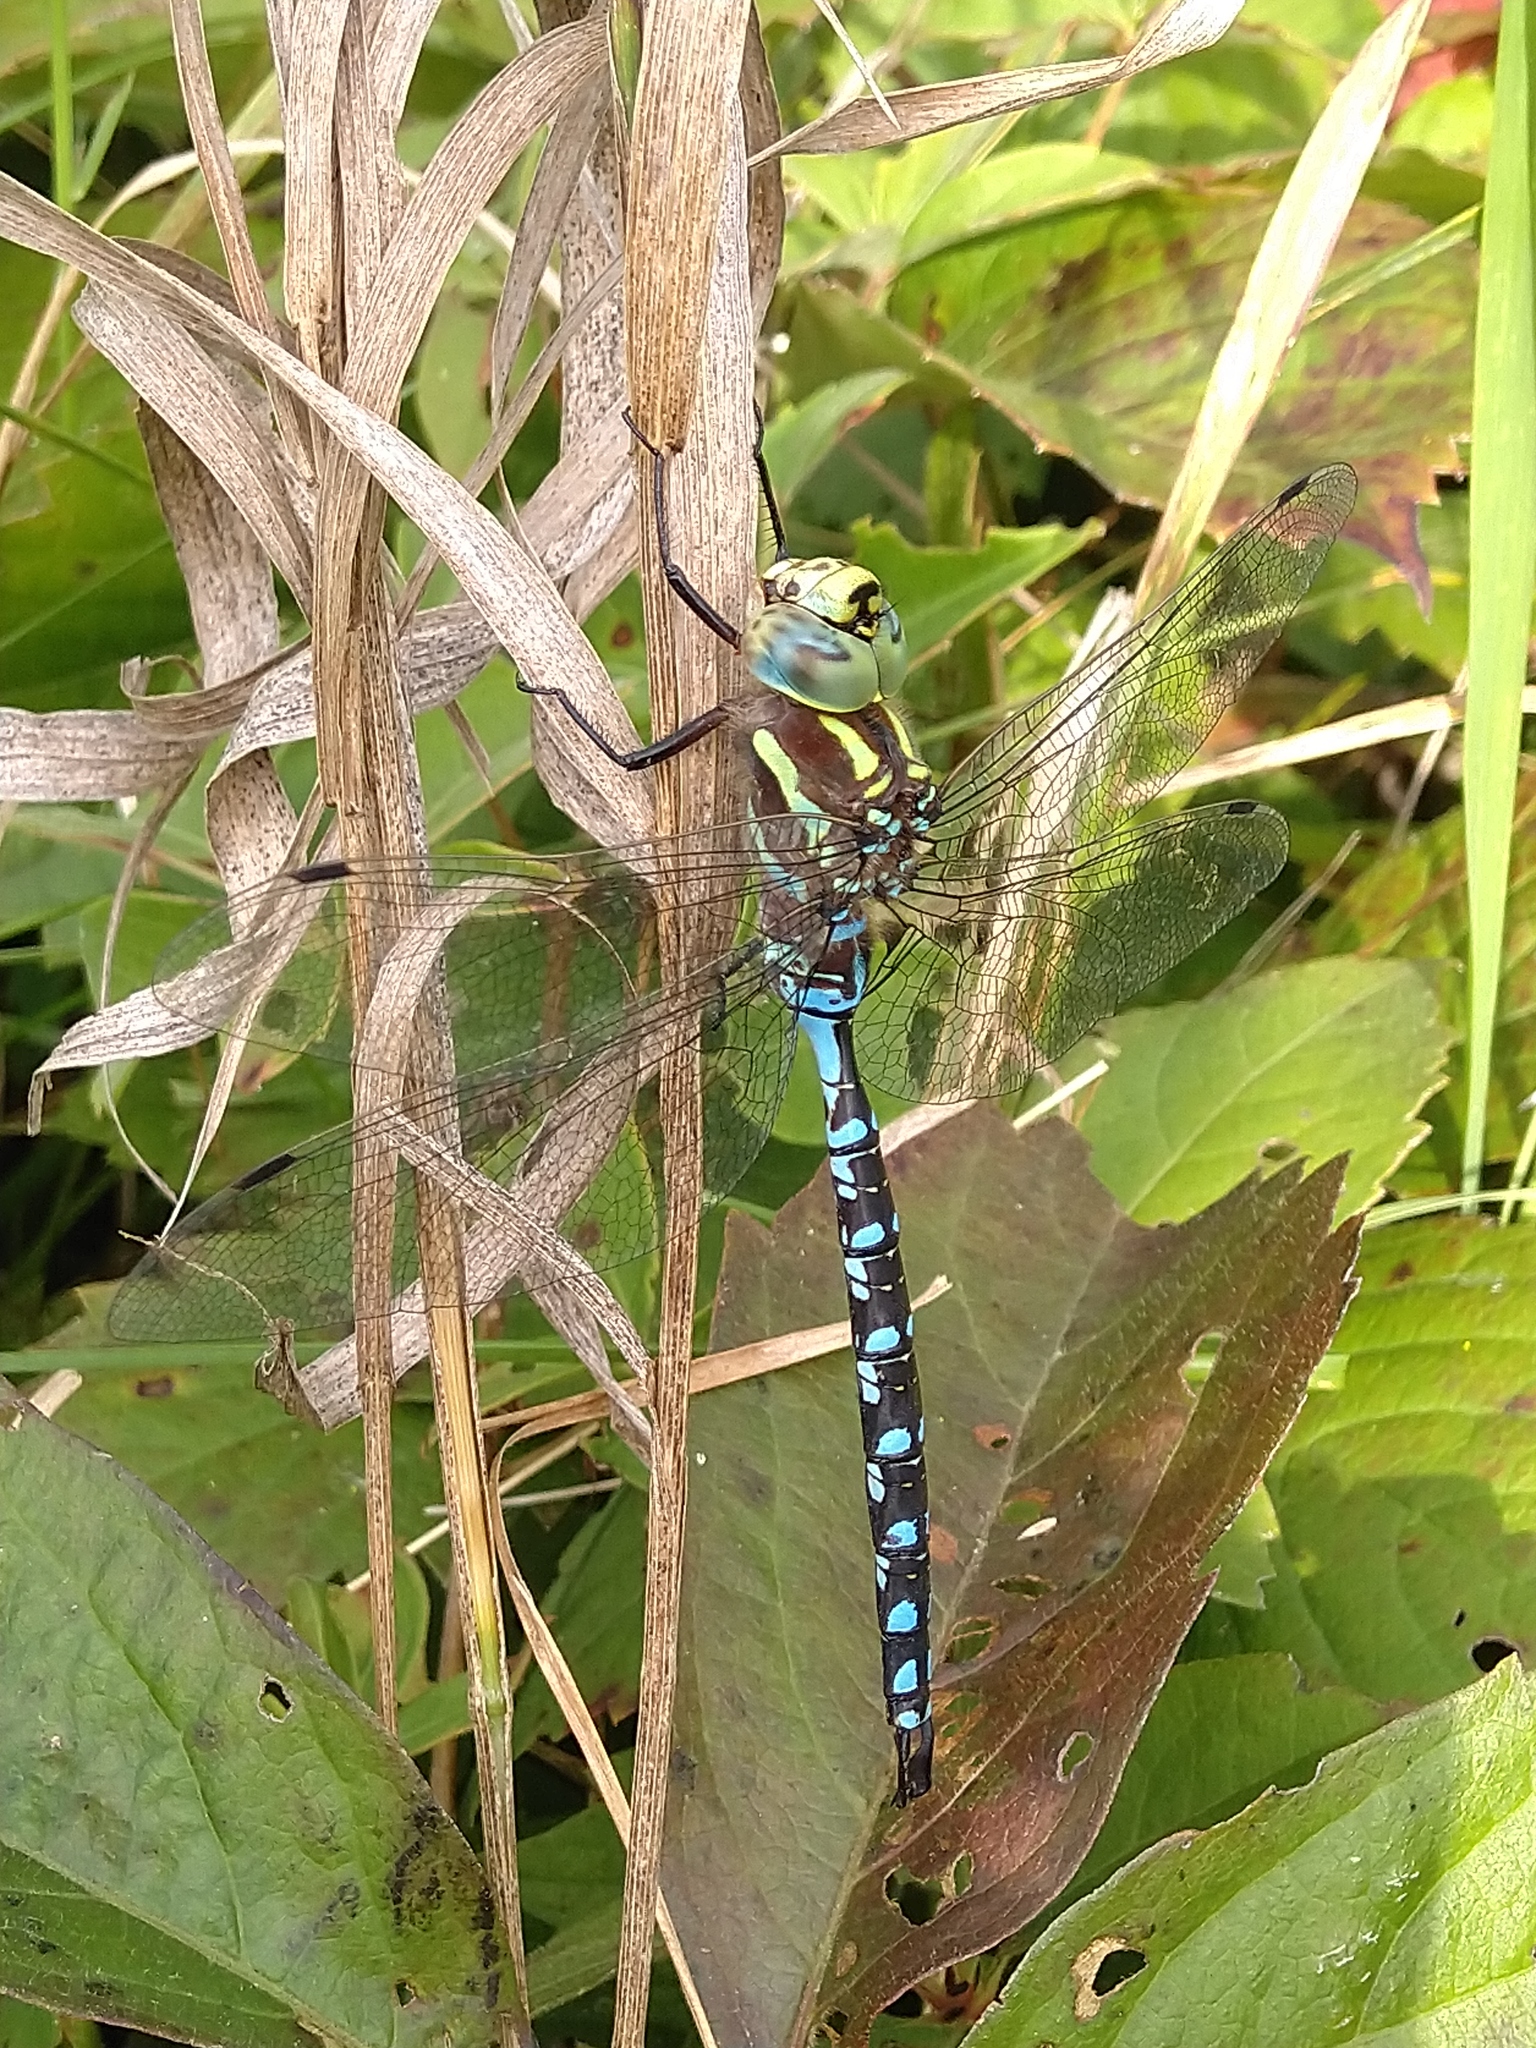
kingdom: Animalia
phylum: Arthropoda
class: Insecta
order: Odonata
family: Aeshnidae
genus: Aeshna
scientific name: Aeshna constricta
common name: Lance-tipped darner
